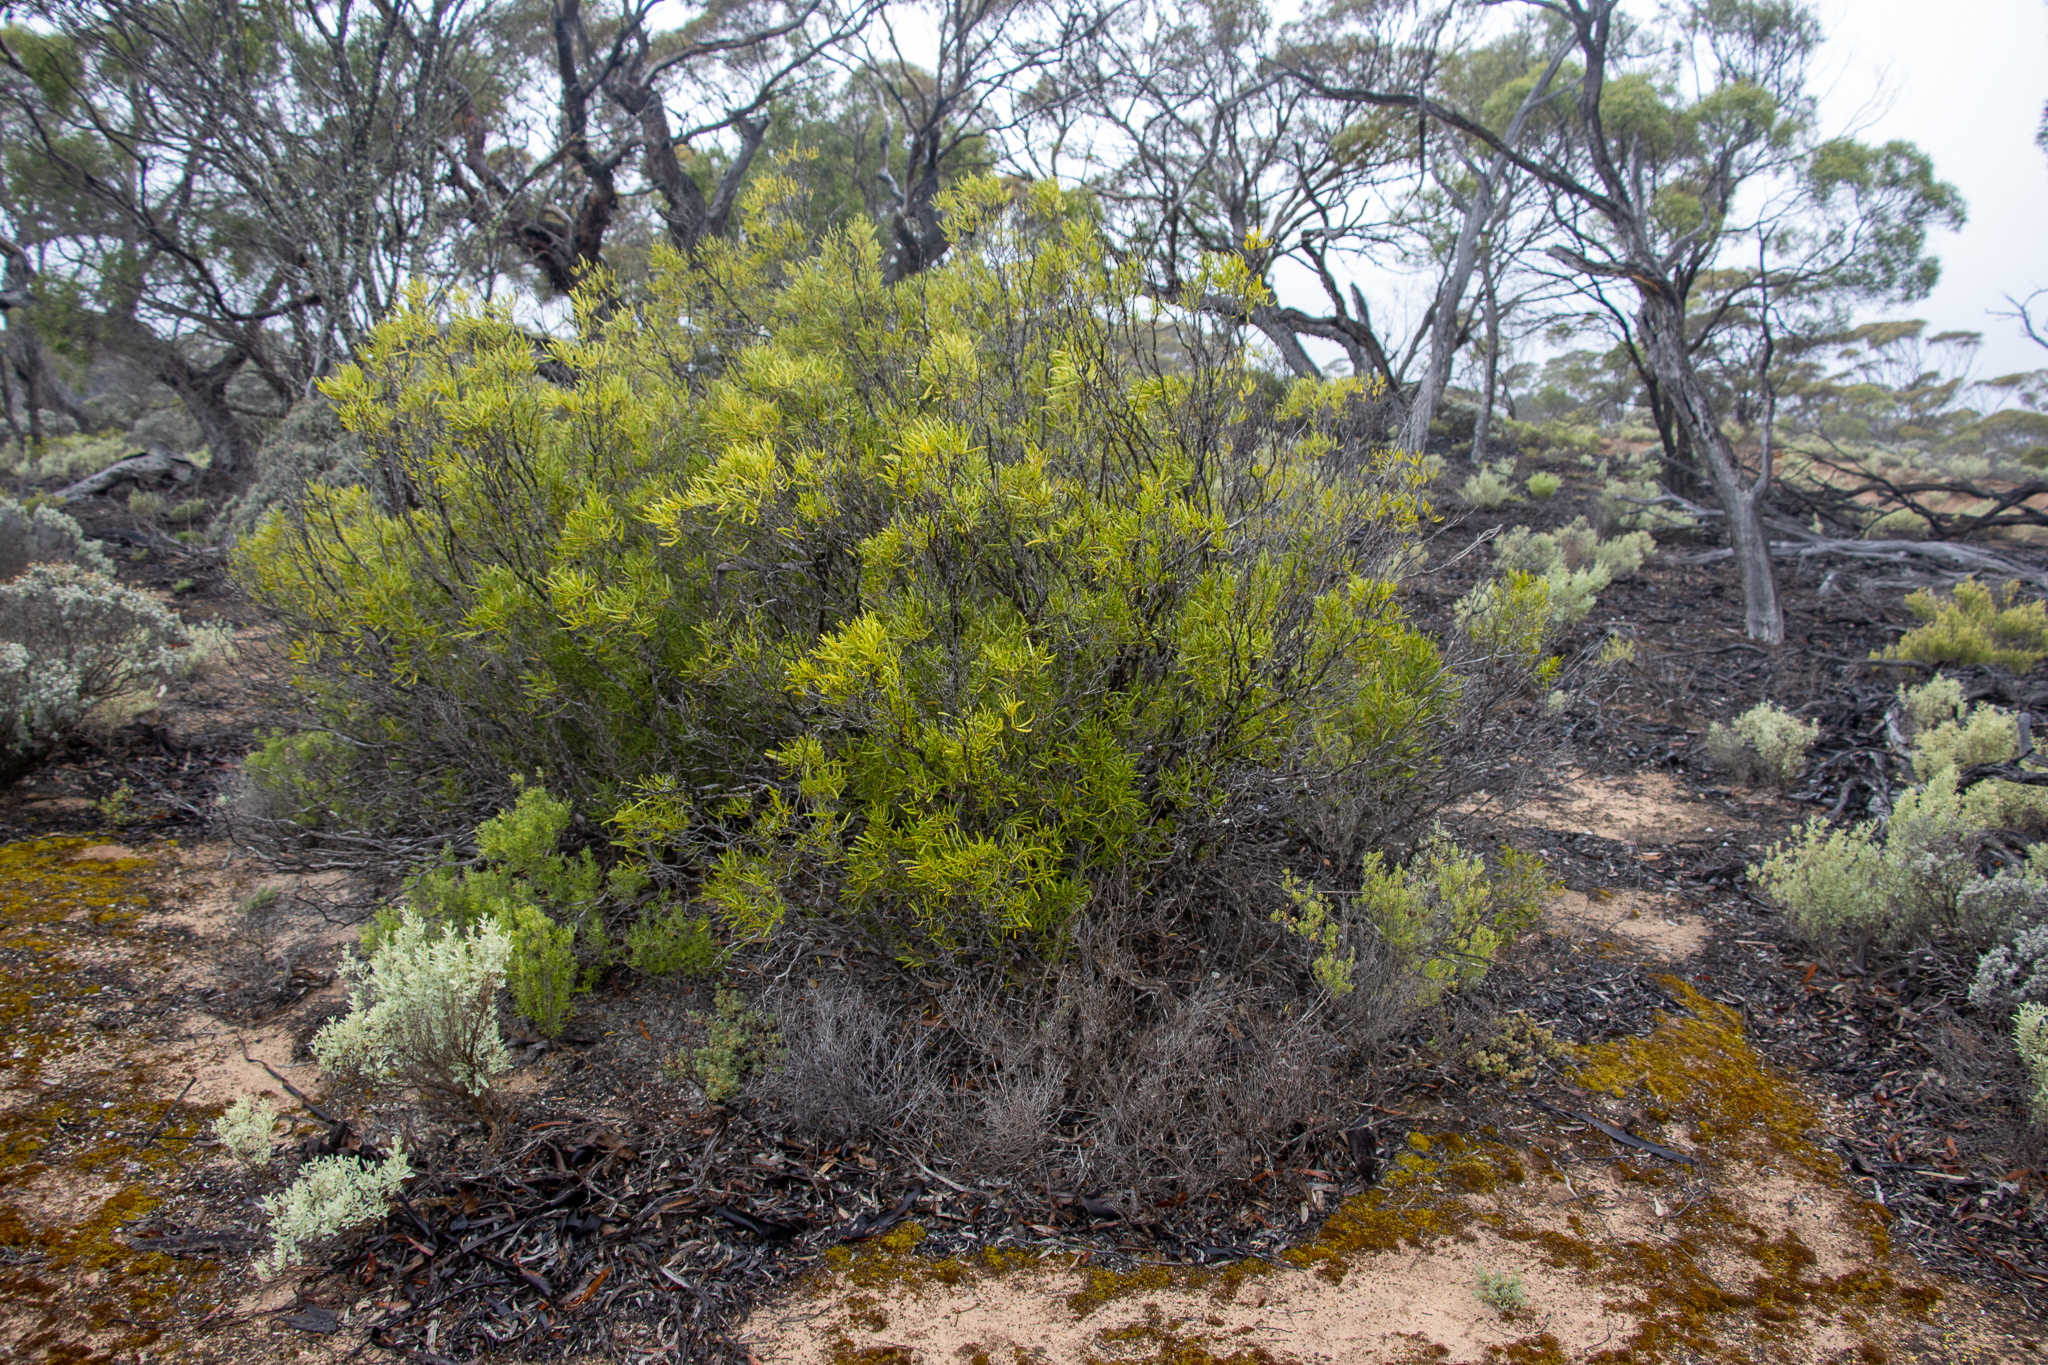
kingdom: Plantae
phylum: Tracheophyta
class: Magnoliopsida
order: Sapindales
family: Rutaceae
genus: Geijera
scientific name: Geijera linearifolia
